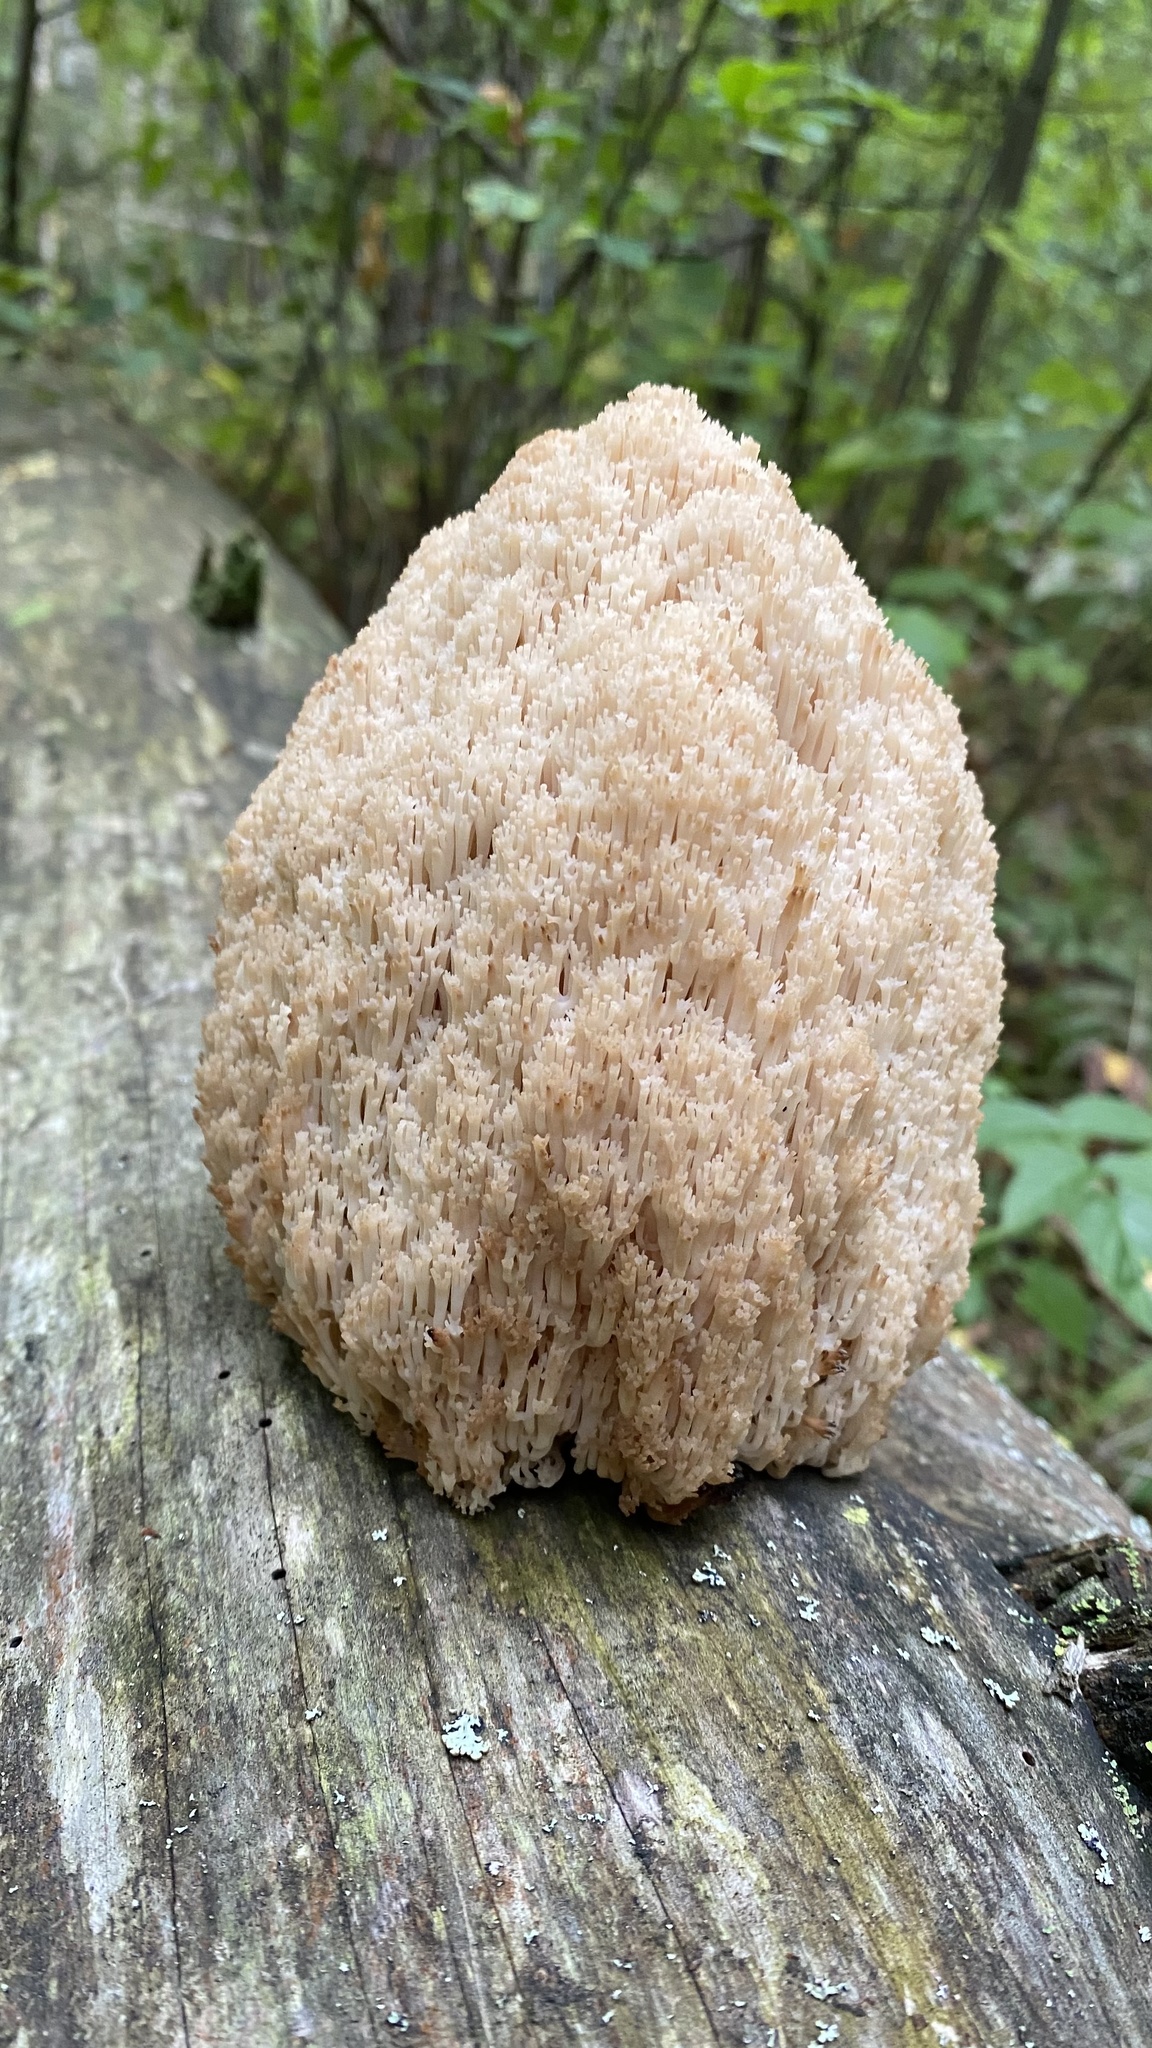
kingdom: Fungi
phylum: Basidiomycota
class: Agaricomycetes
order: Russulales
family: Auriscalpiaceae
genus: Artomyces
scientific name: Artomyces microsporus
